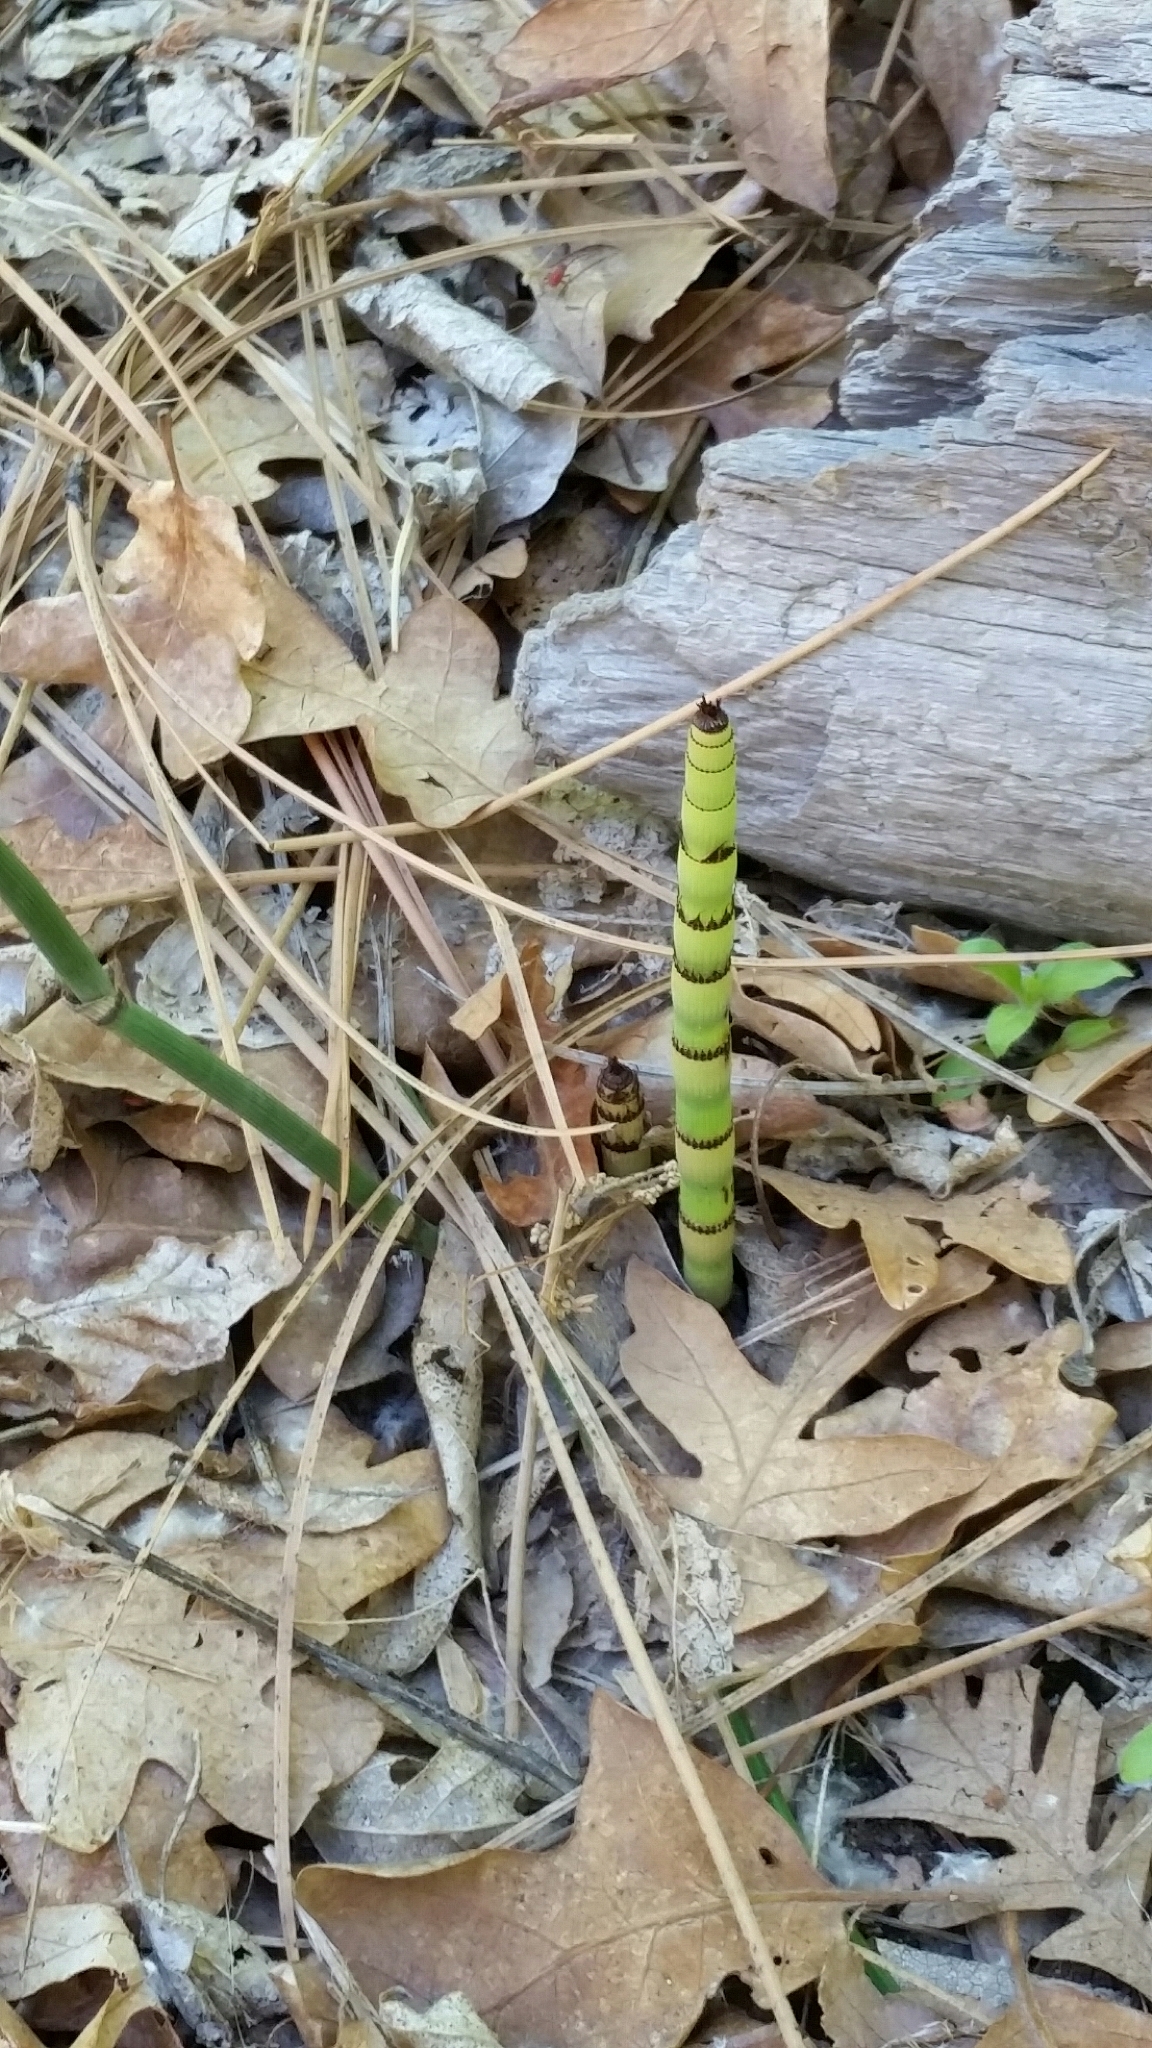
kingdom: Plantae
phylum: Tracheophyta
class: Polypodiopsida
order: Equisetales
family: Equisetaceae
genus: Equisetum
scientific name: Equisetum hyemale
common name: Rough horsetail
